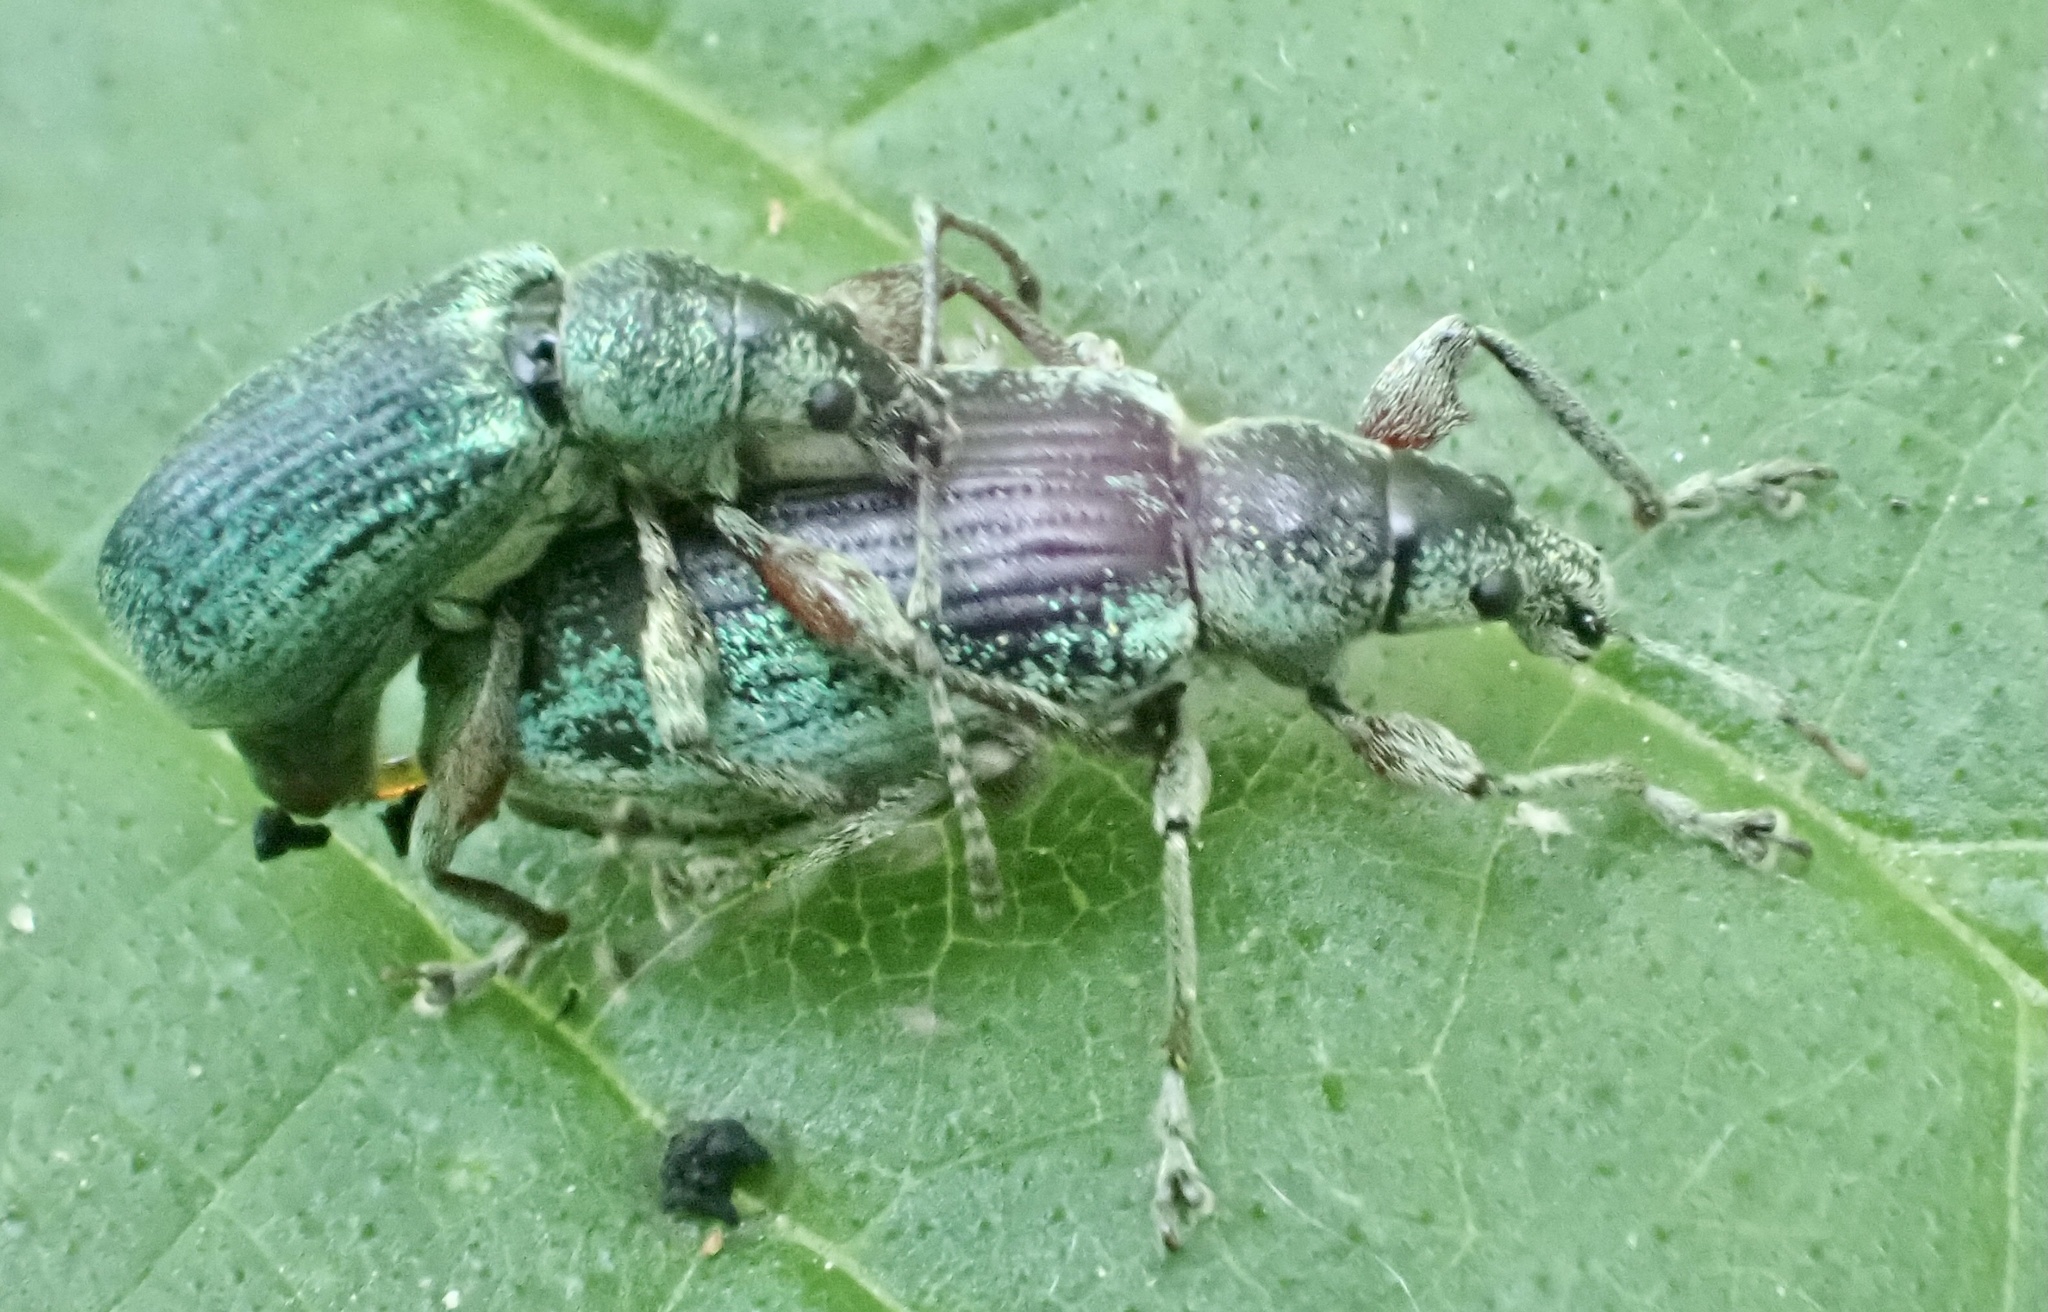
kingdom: Animalia
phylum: Arthropoda
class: Insecta
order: Coleoptera
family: Curculionidae
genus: Phyllobius
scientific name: Phyllobius pomaceus
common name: Green nettle weevil
